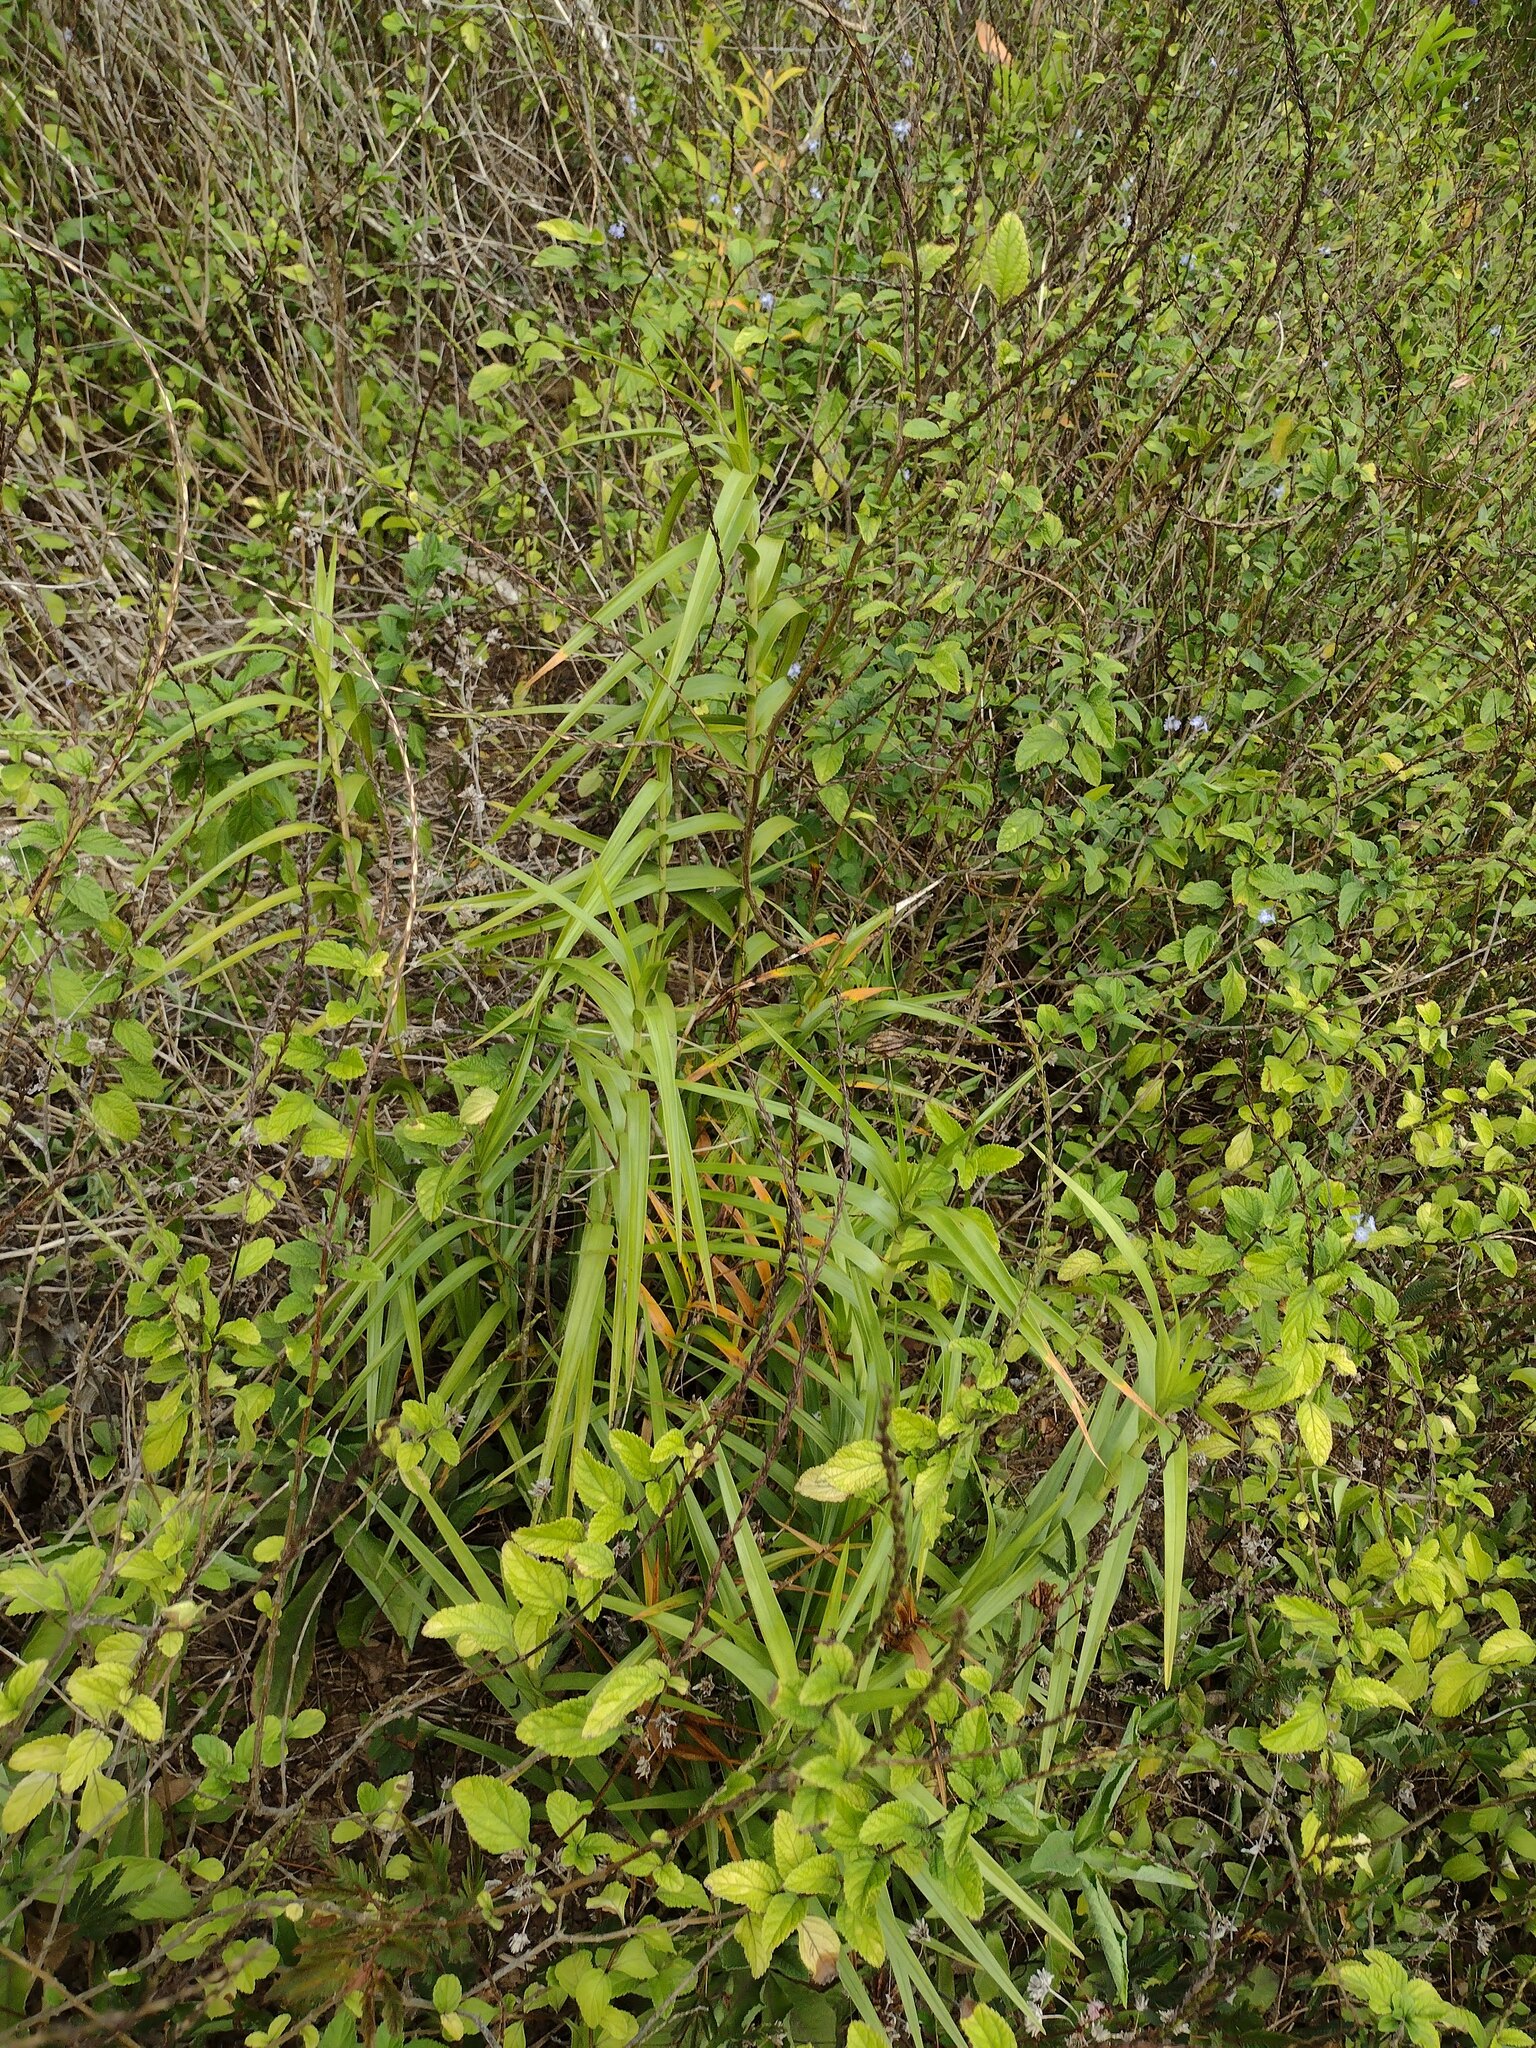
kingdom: Plantae
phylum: Tracheophyta
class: Liliopsida
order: Asparagales
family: Orchidaceae
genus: Arundina
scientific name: Arundina graminifolia
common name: Bamboo orchid
